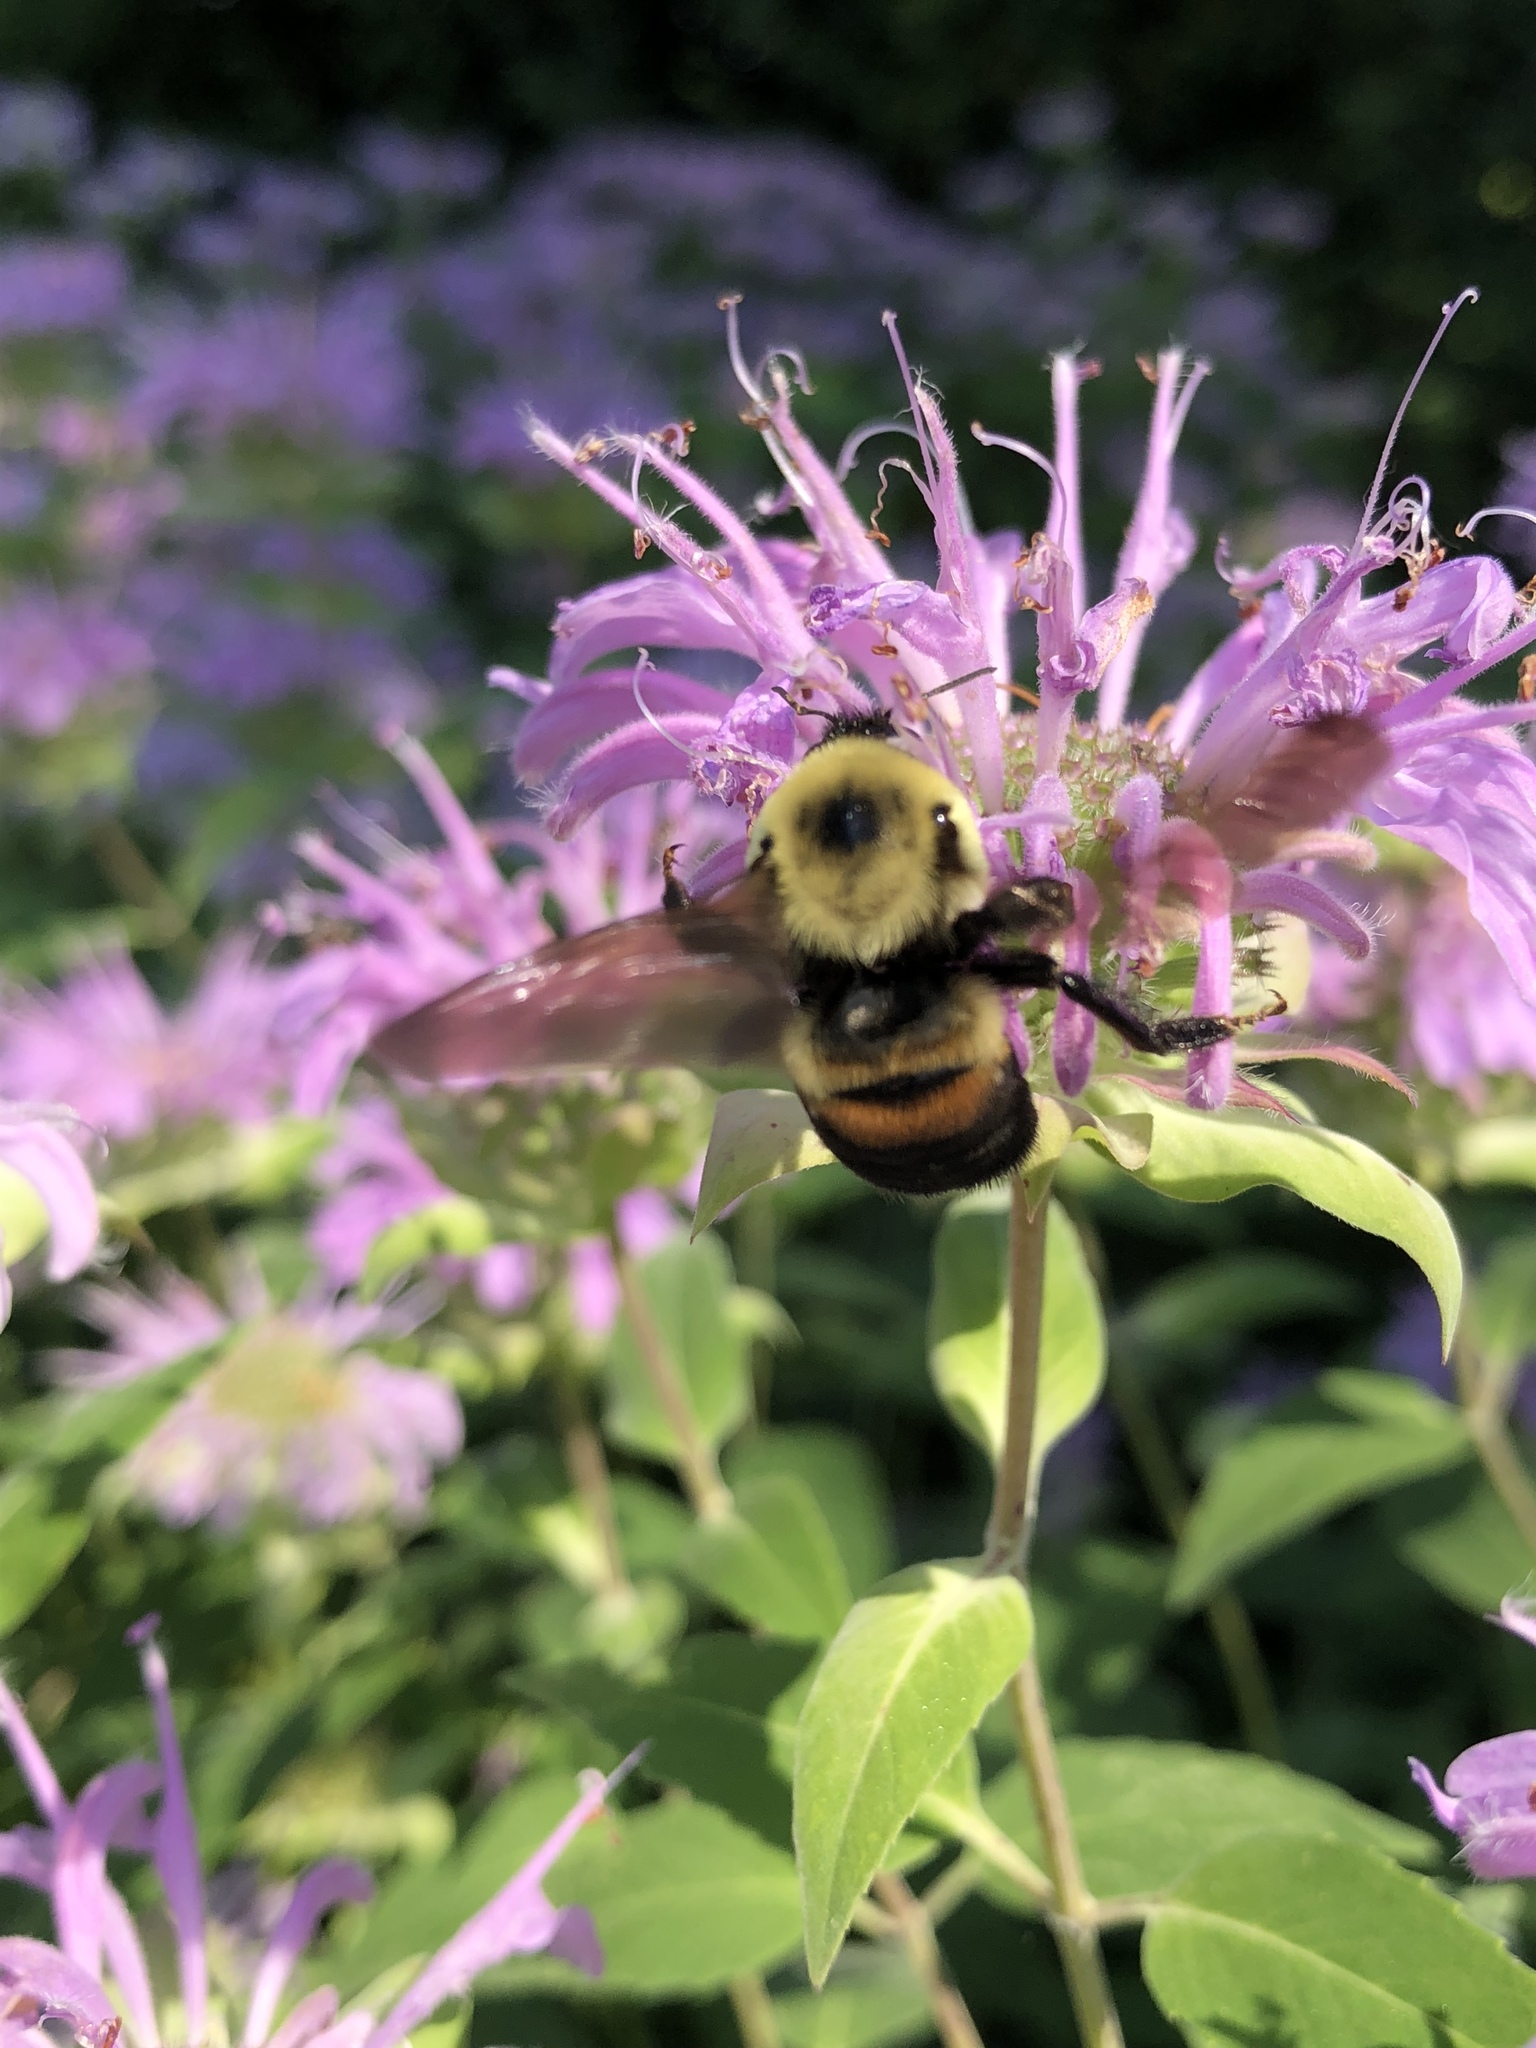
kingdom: Animalia
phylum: Arthropoda
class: Insecta
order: Hymenoptera
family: Apidae
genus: Bombus
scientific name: Bombus griseocollis
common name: Brown-belted bumble bee
